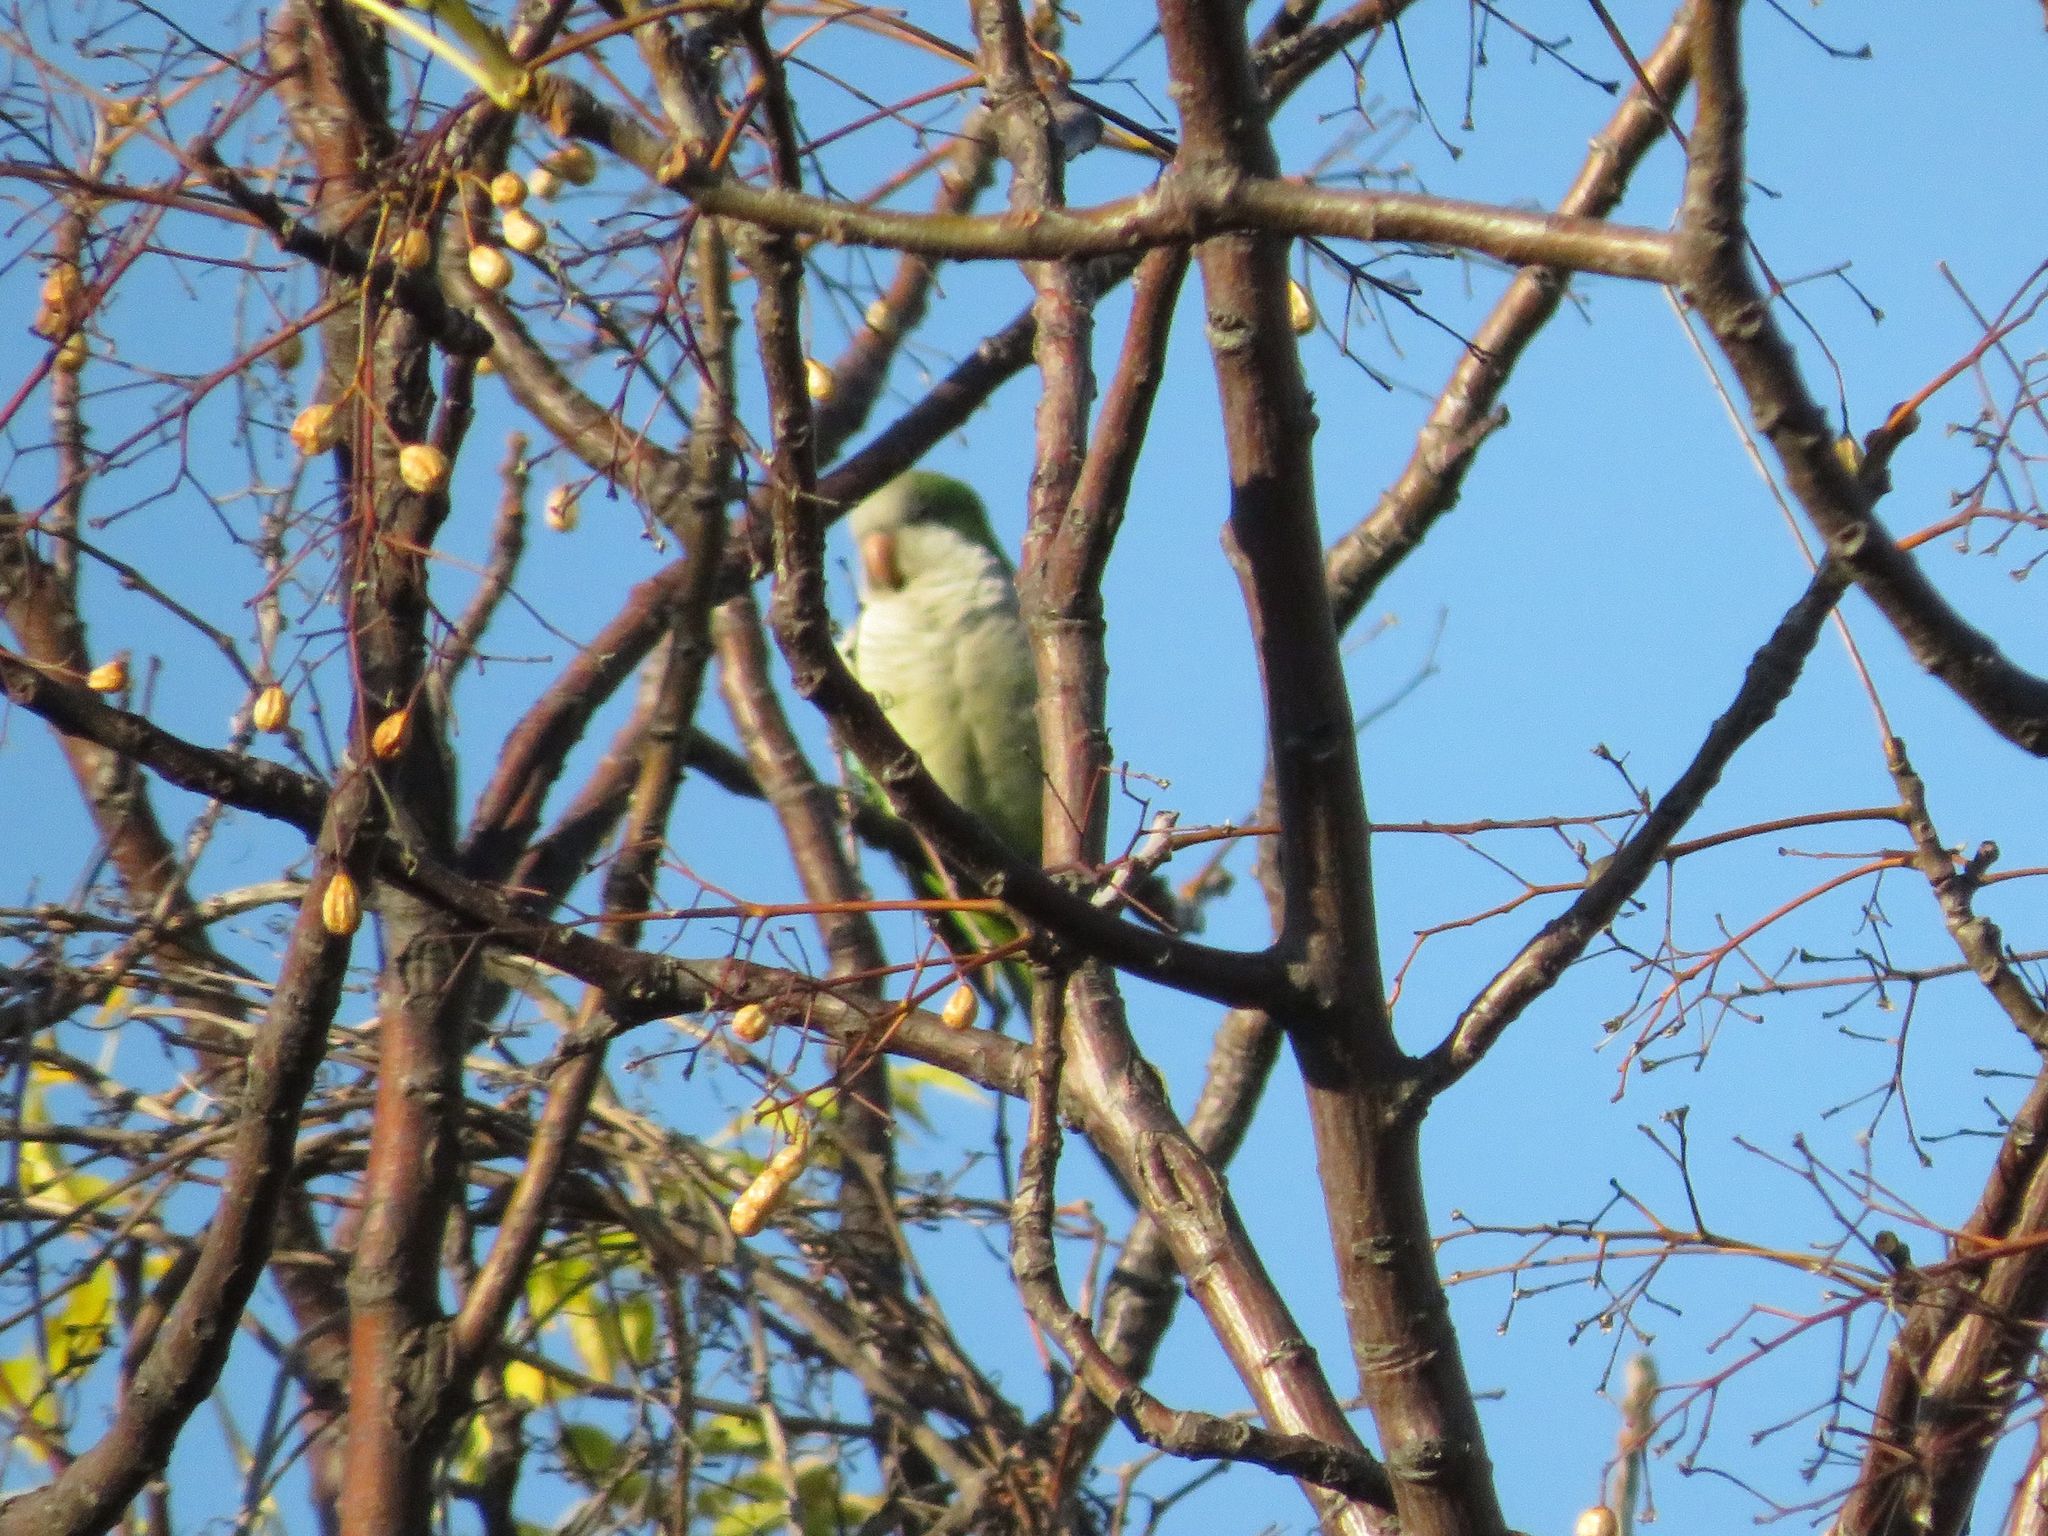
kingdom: Animalia
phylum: Chordata
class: Aves
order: Psittaciformes
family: Psittacidae
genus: Myiopsitta
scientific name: Myiopsitta monachus
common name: Monk parakeet
